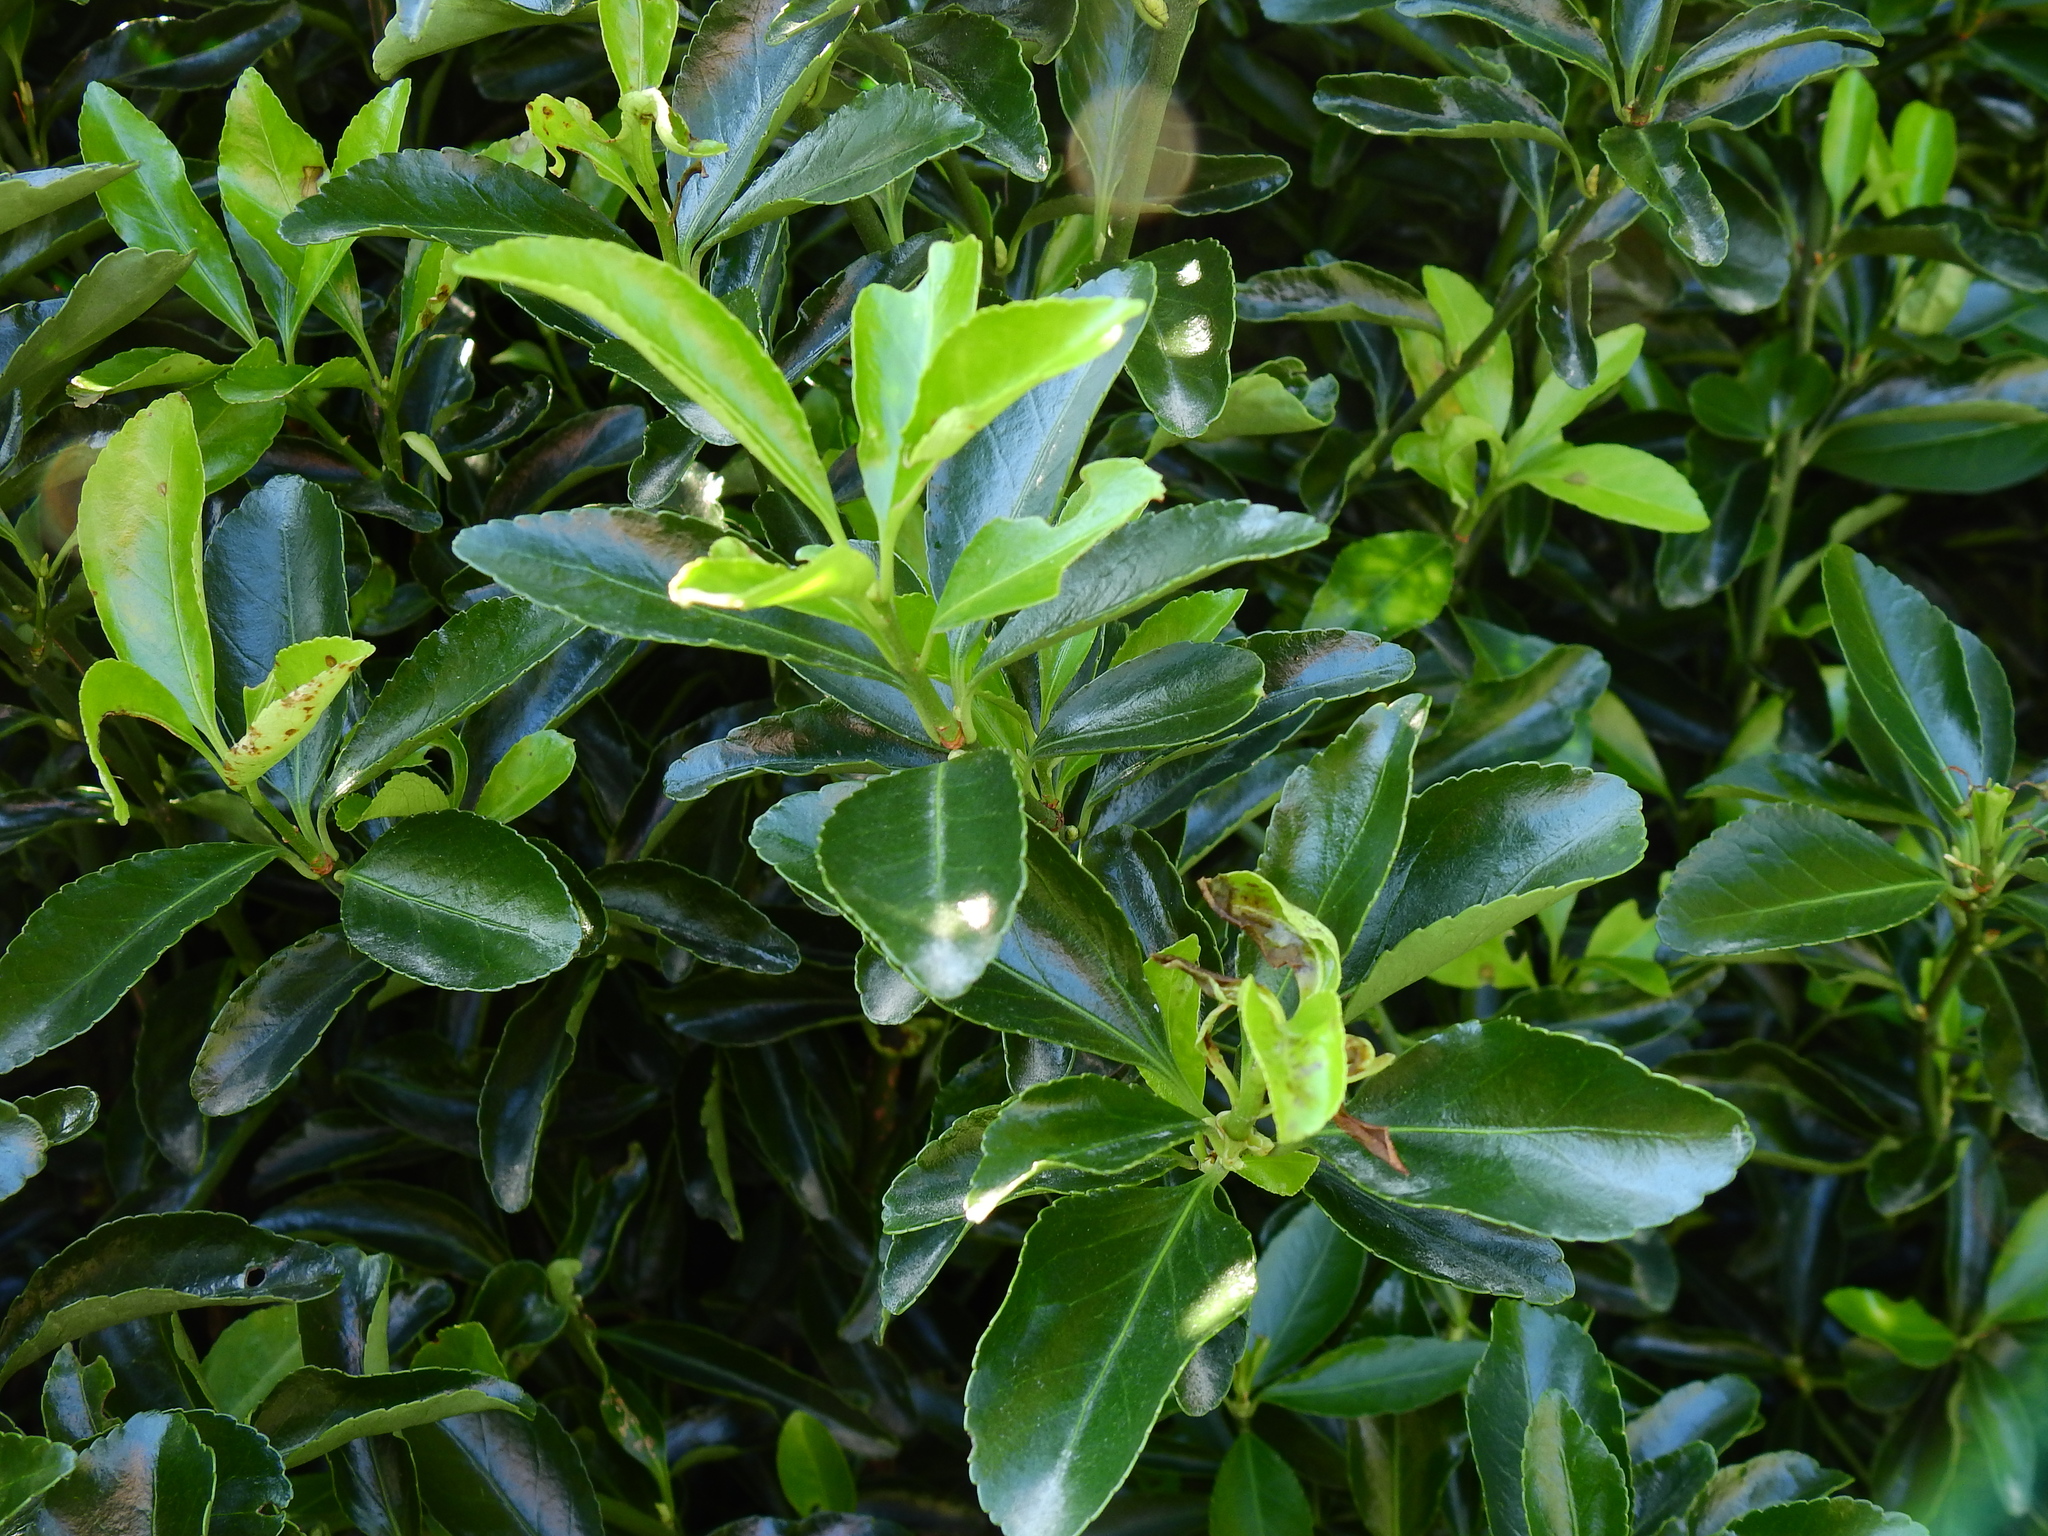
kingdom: Plantae
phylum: Tracheophyta
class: Magnoliopsida
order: Celastrales
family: Celastraceae
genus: Euonymus
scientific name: Euonymus japonicus
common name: Japanese spindletree
